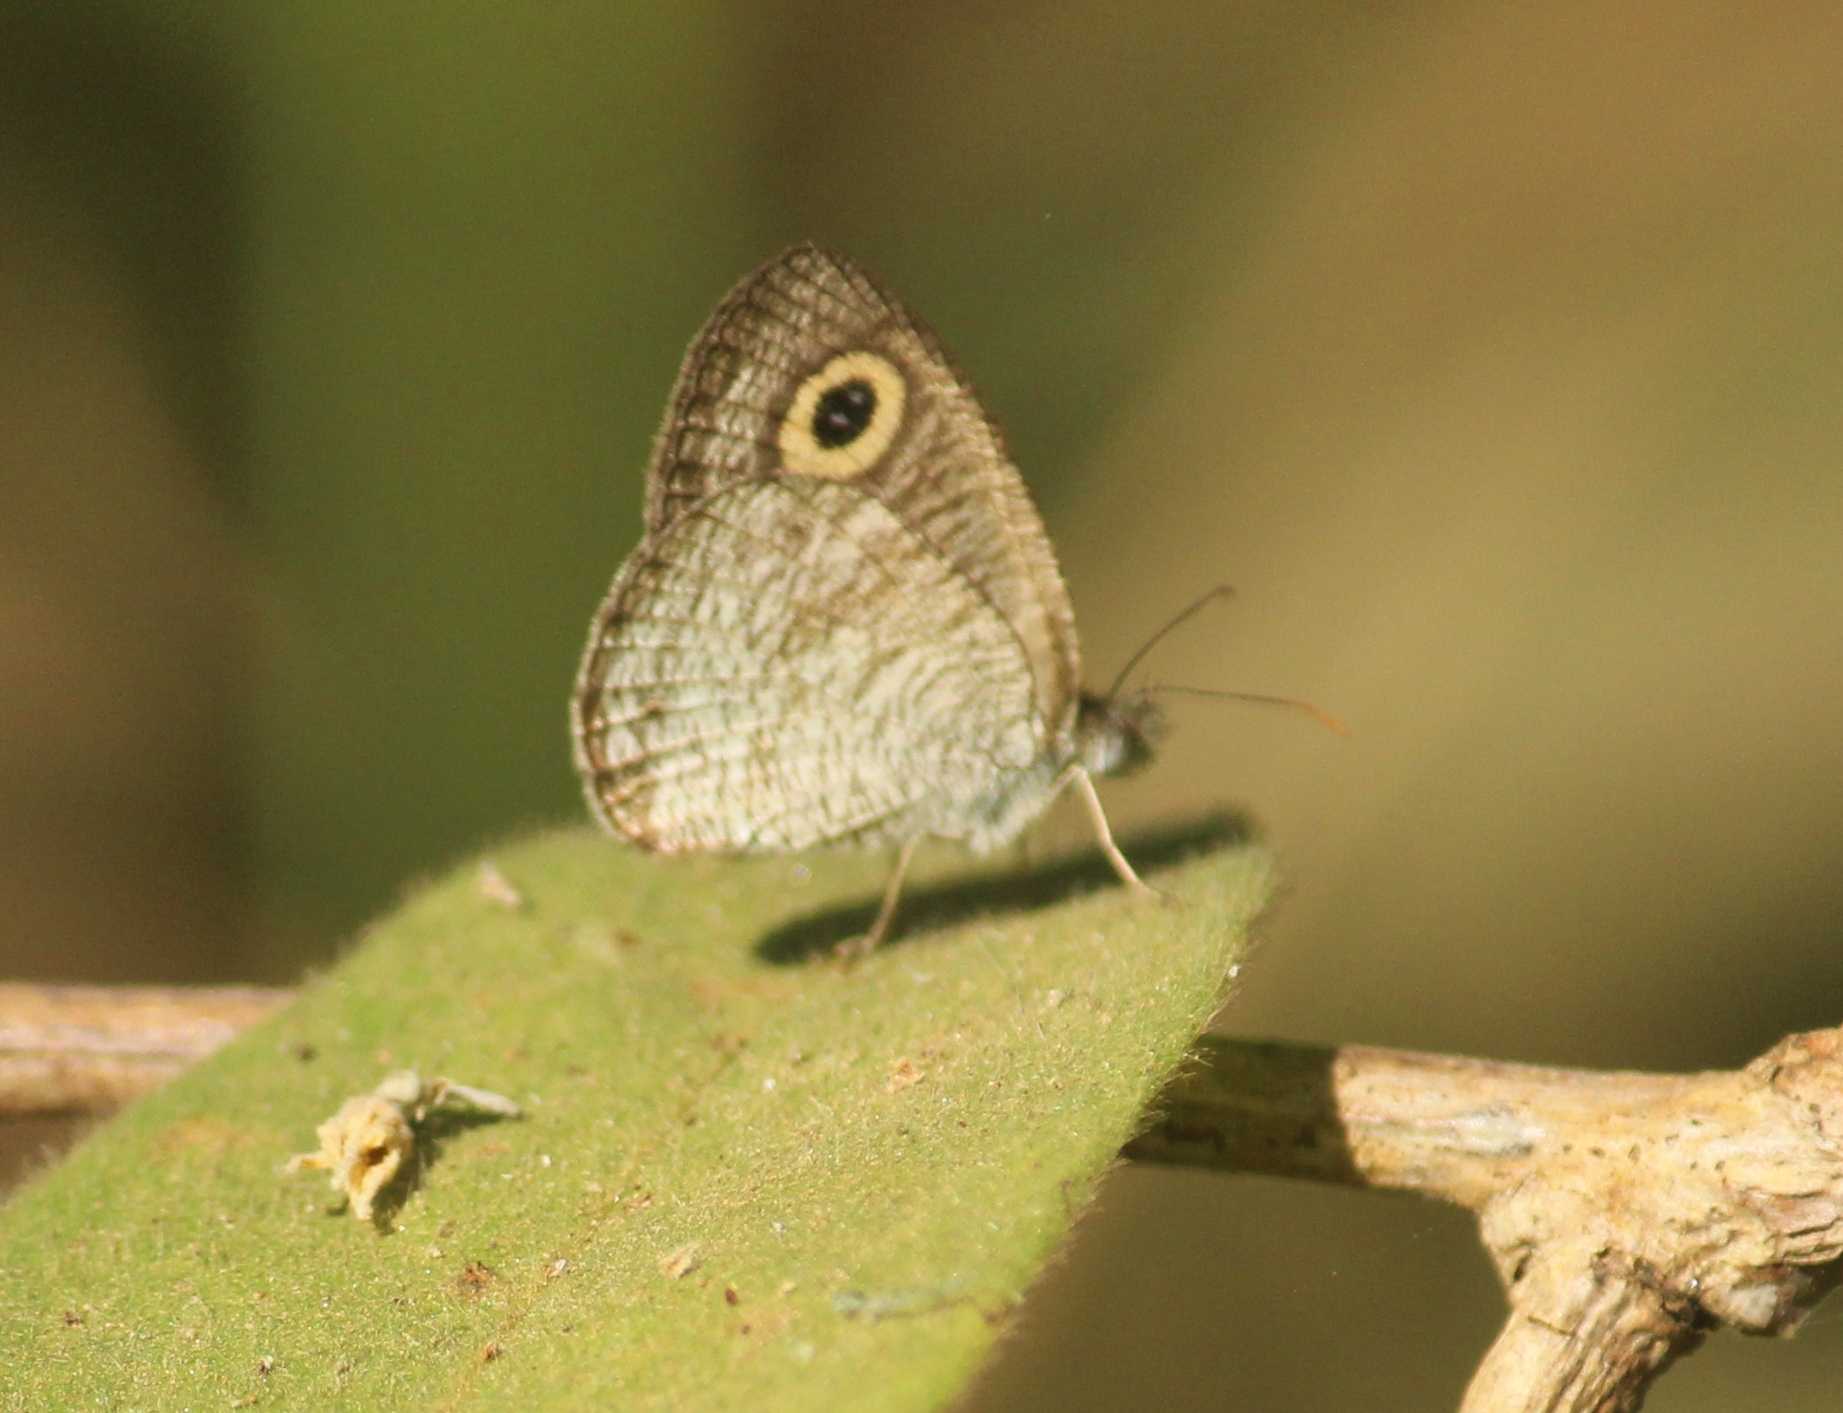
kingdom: Animalia
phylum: Arthropoda
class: Insecta
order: Lepidoptera
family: Nymphalidae
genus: Ypthima
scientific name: Ypthima huebneri
